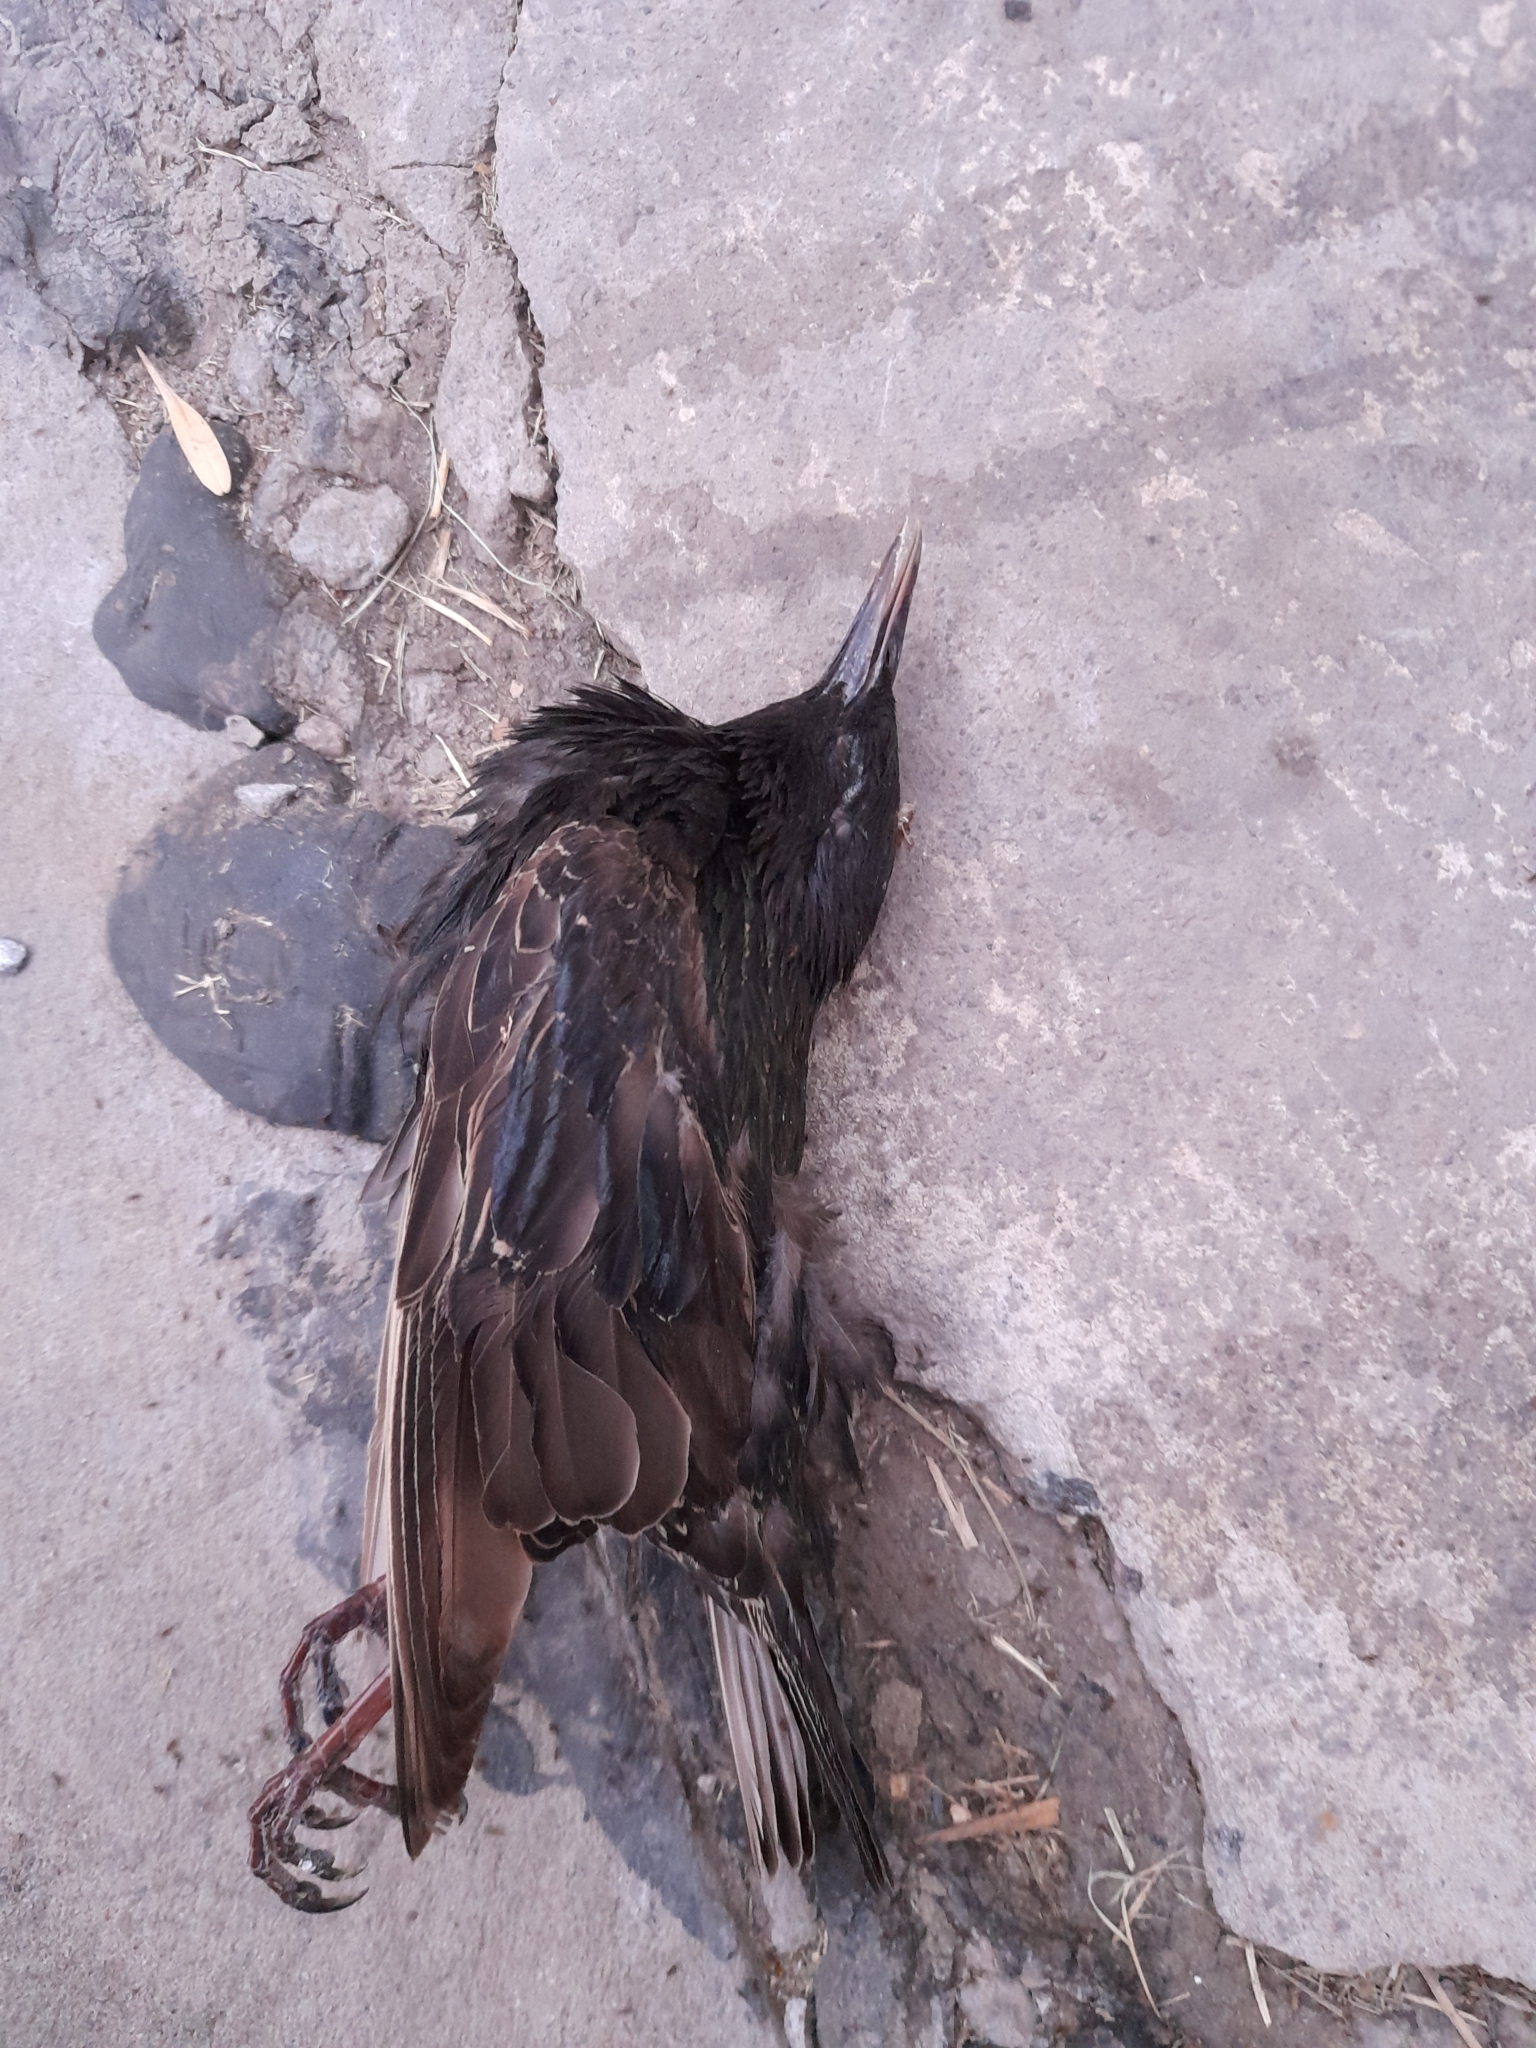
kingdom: Animalia
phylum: Chordata
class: Aves
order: Passeriformes
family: Sturnidae
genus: Sturnus
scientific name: Sturnus vulgaris
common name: Common starling
